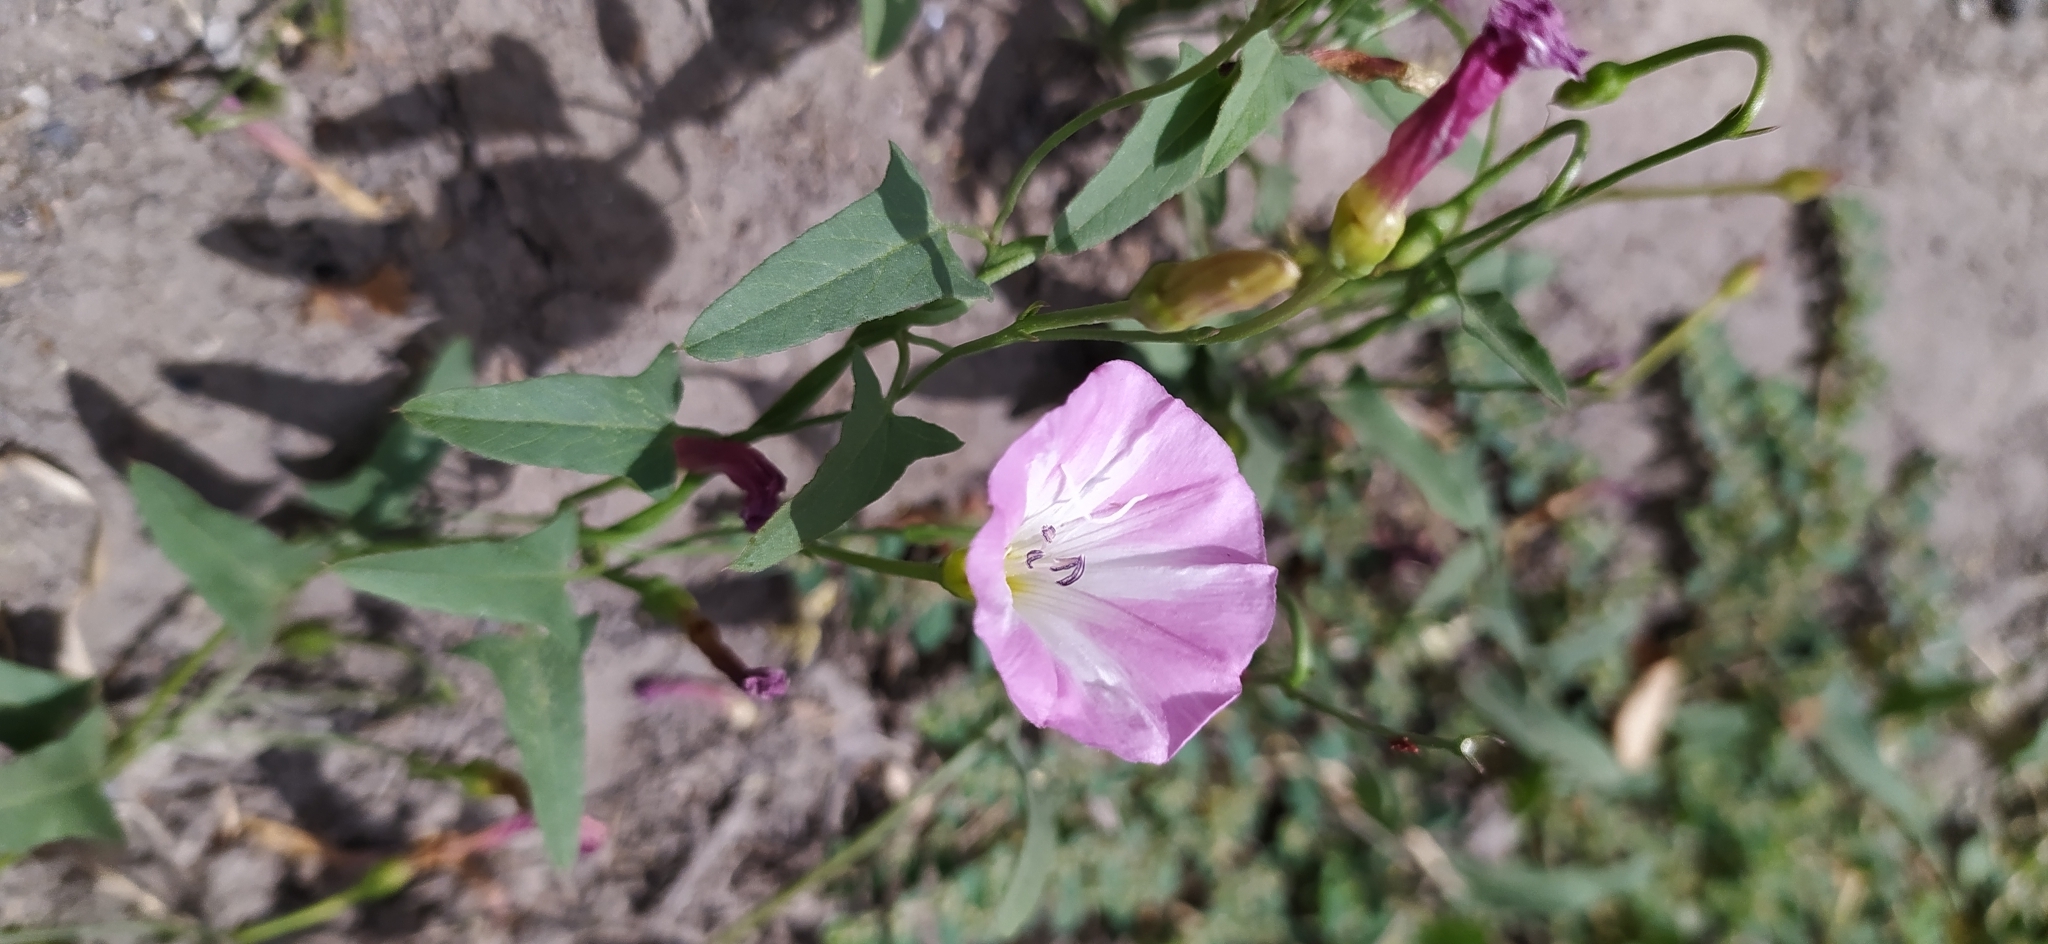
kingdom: Plantae
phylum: Tracheophyta
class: Magnoliopsida
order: Solanales
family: Convolvulaceae
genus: Convolvulus
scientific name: Convolvulus arvensis
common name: Field bindweed
